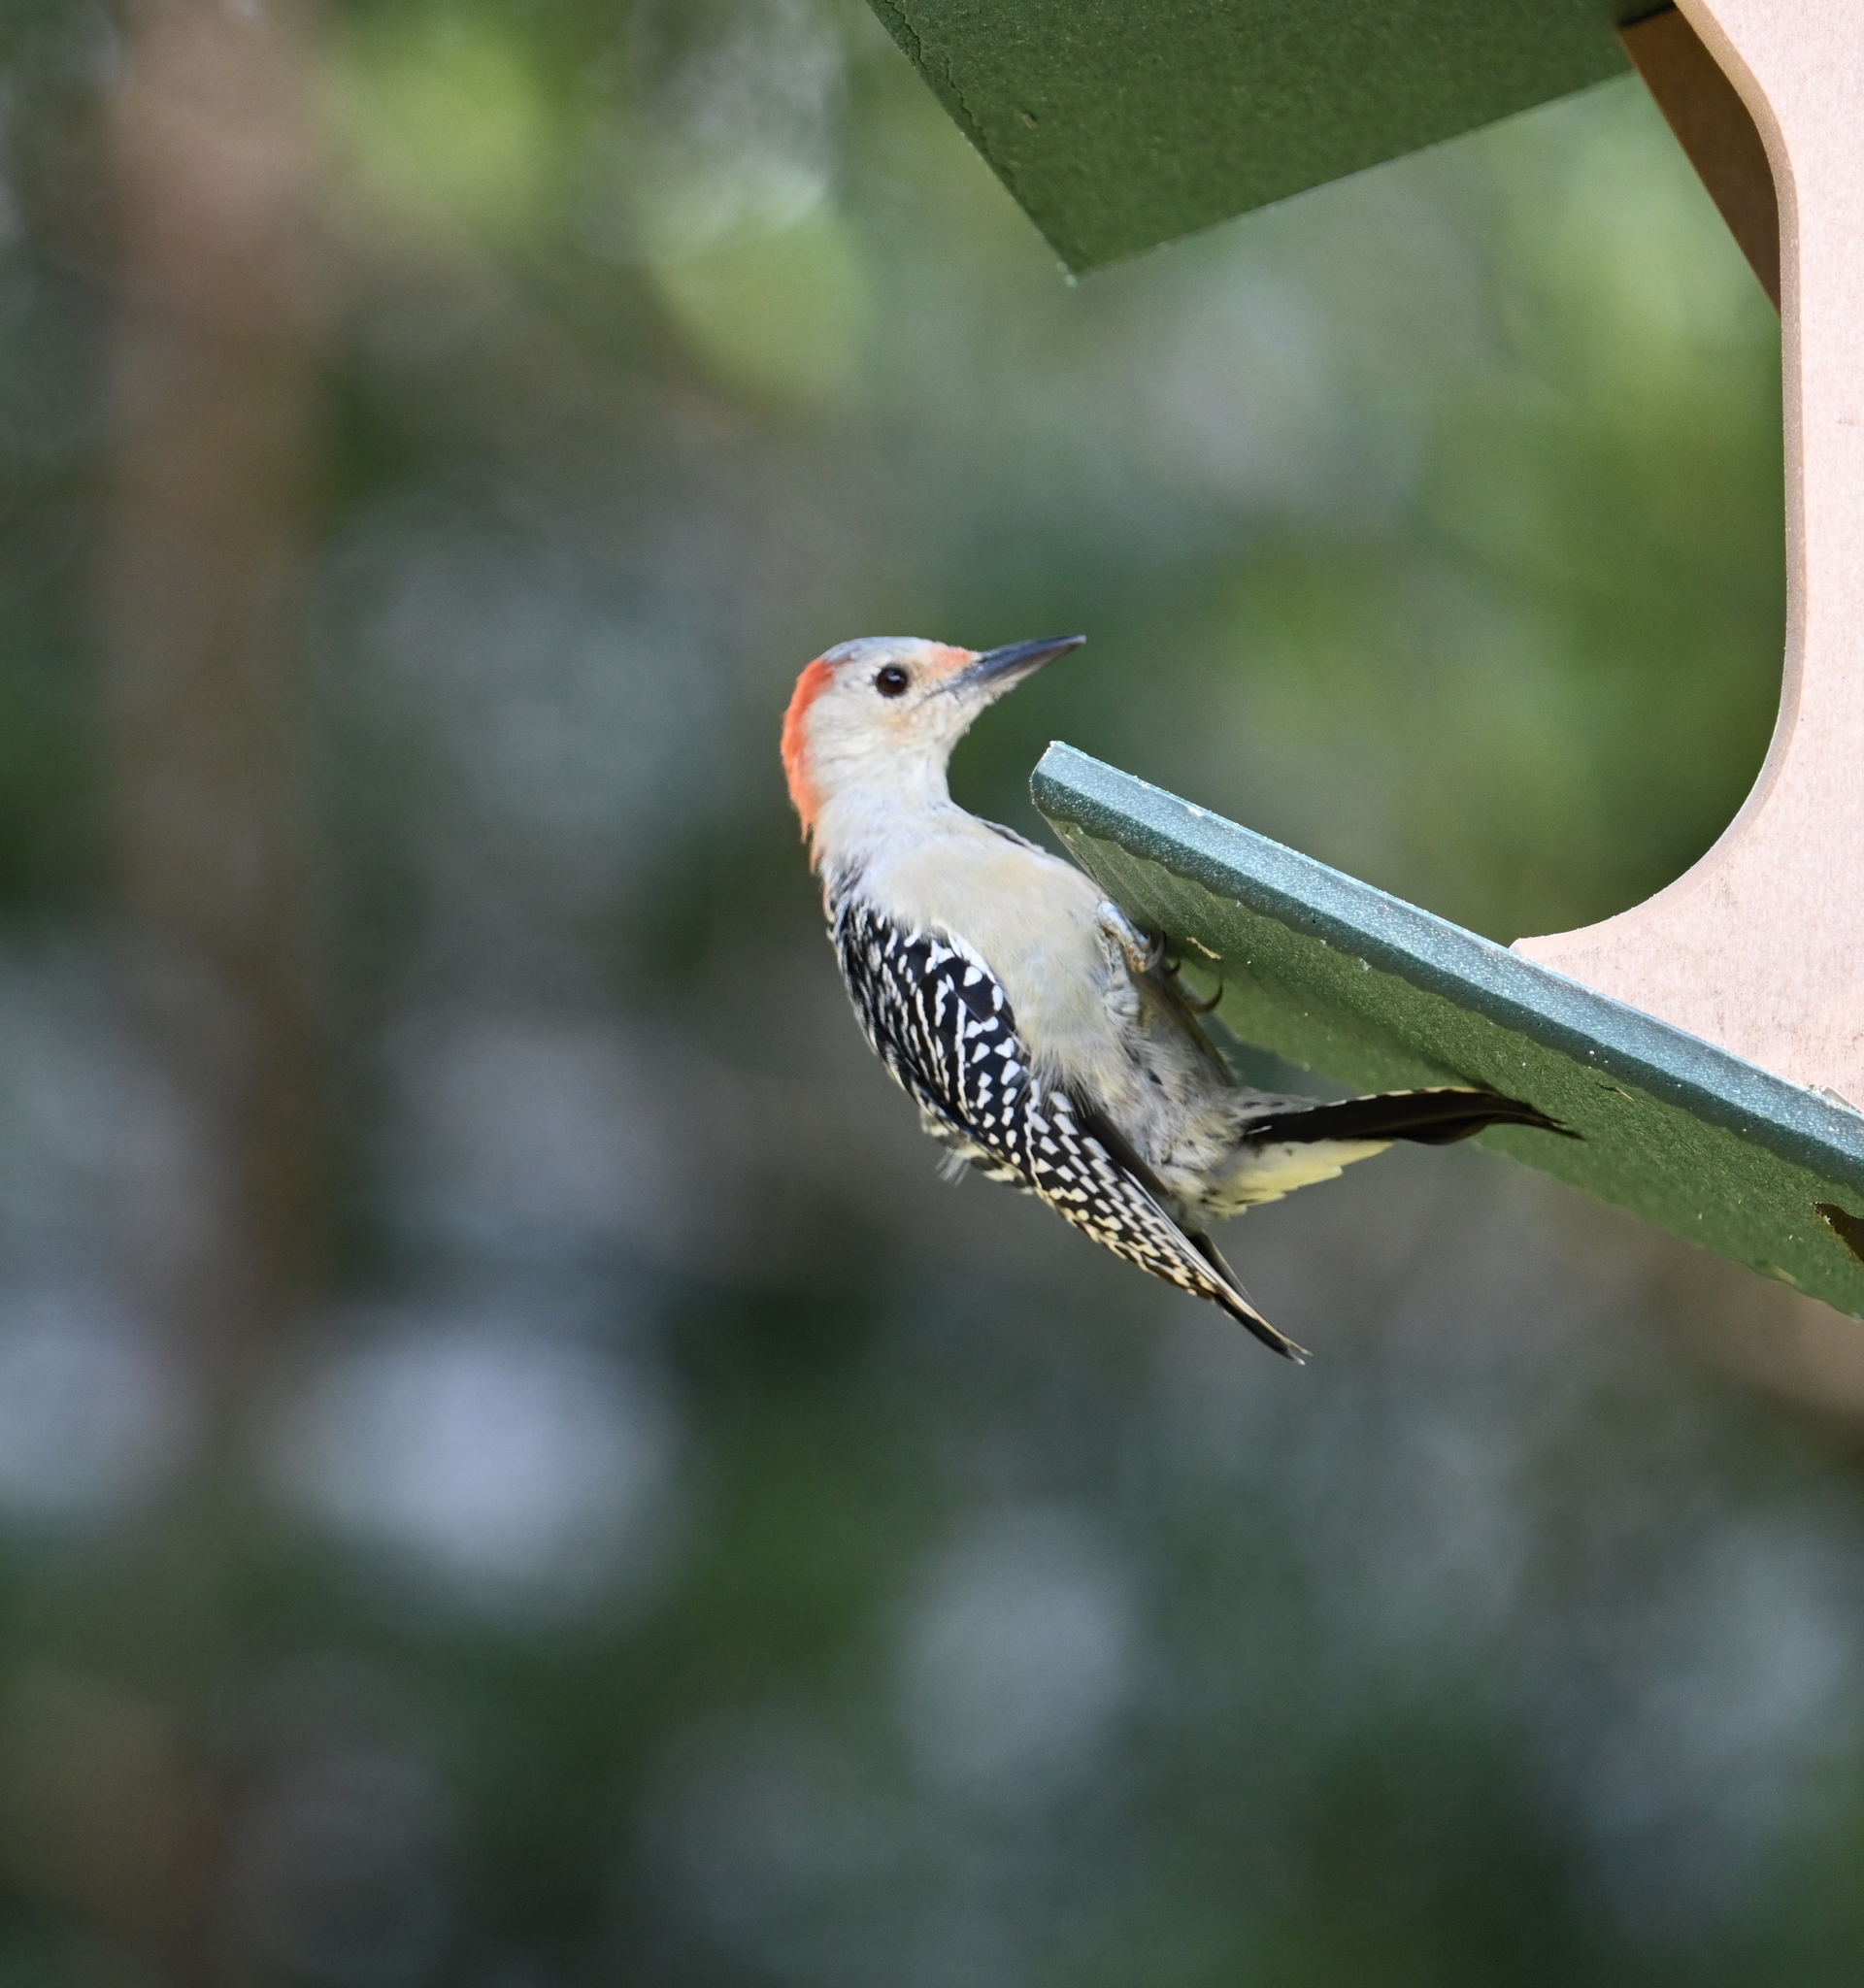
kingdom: Animalia
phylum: Chordata
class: Aves
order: Piciformes
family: Picidae
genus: Melanerpes
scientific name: Melanerpes carolinus
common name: Red-bellied woodpecker
